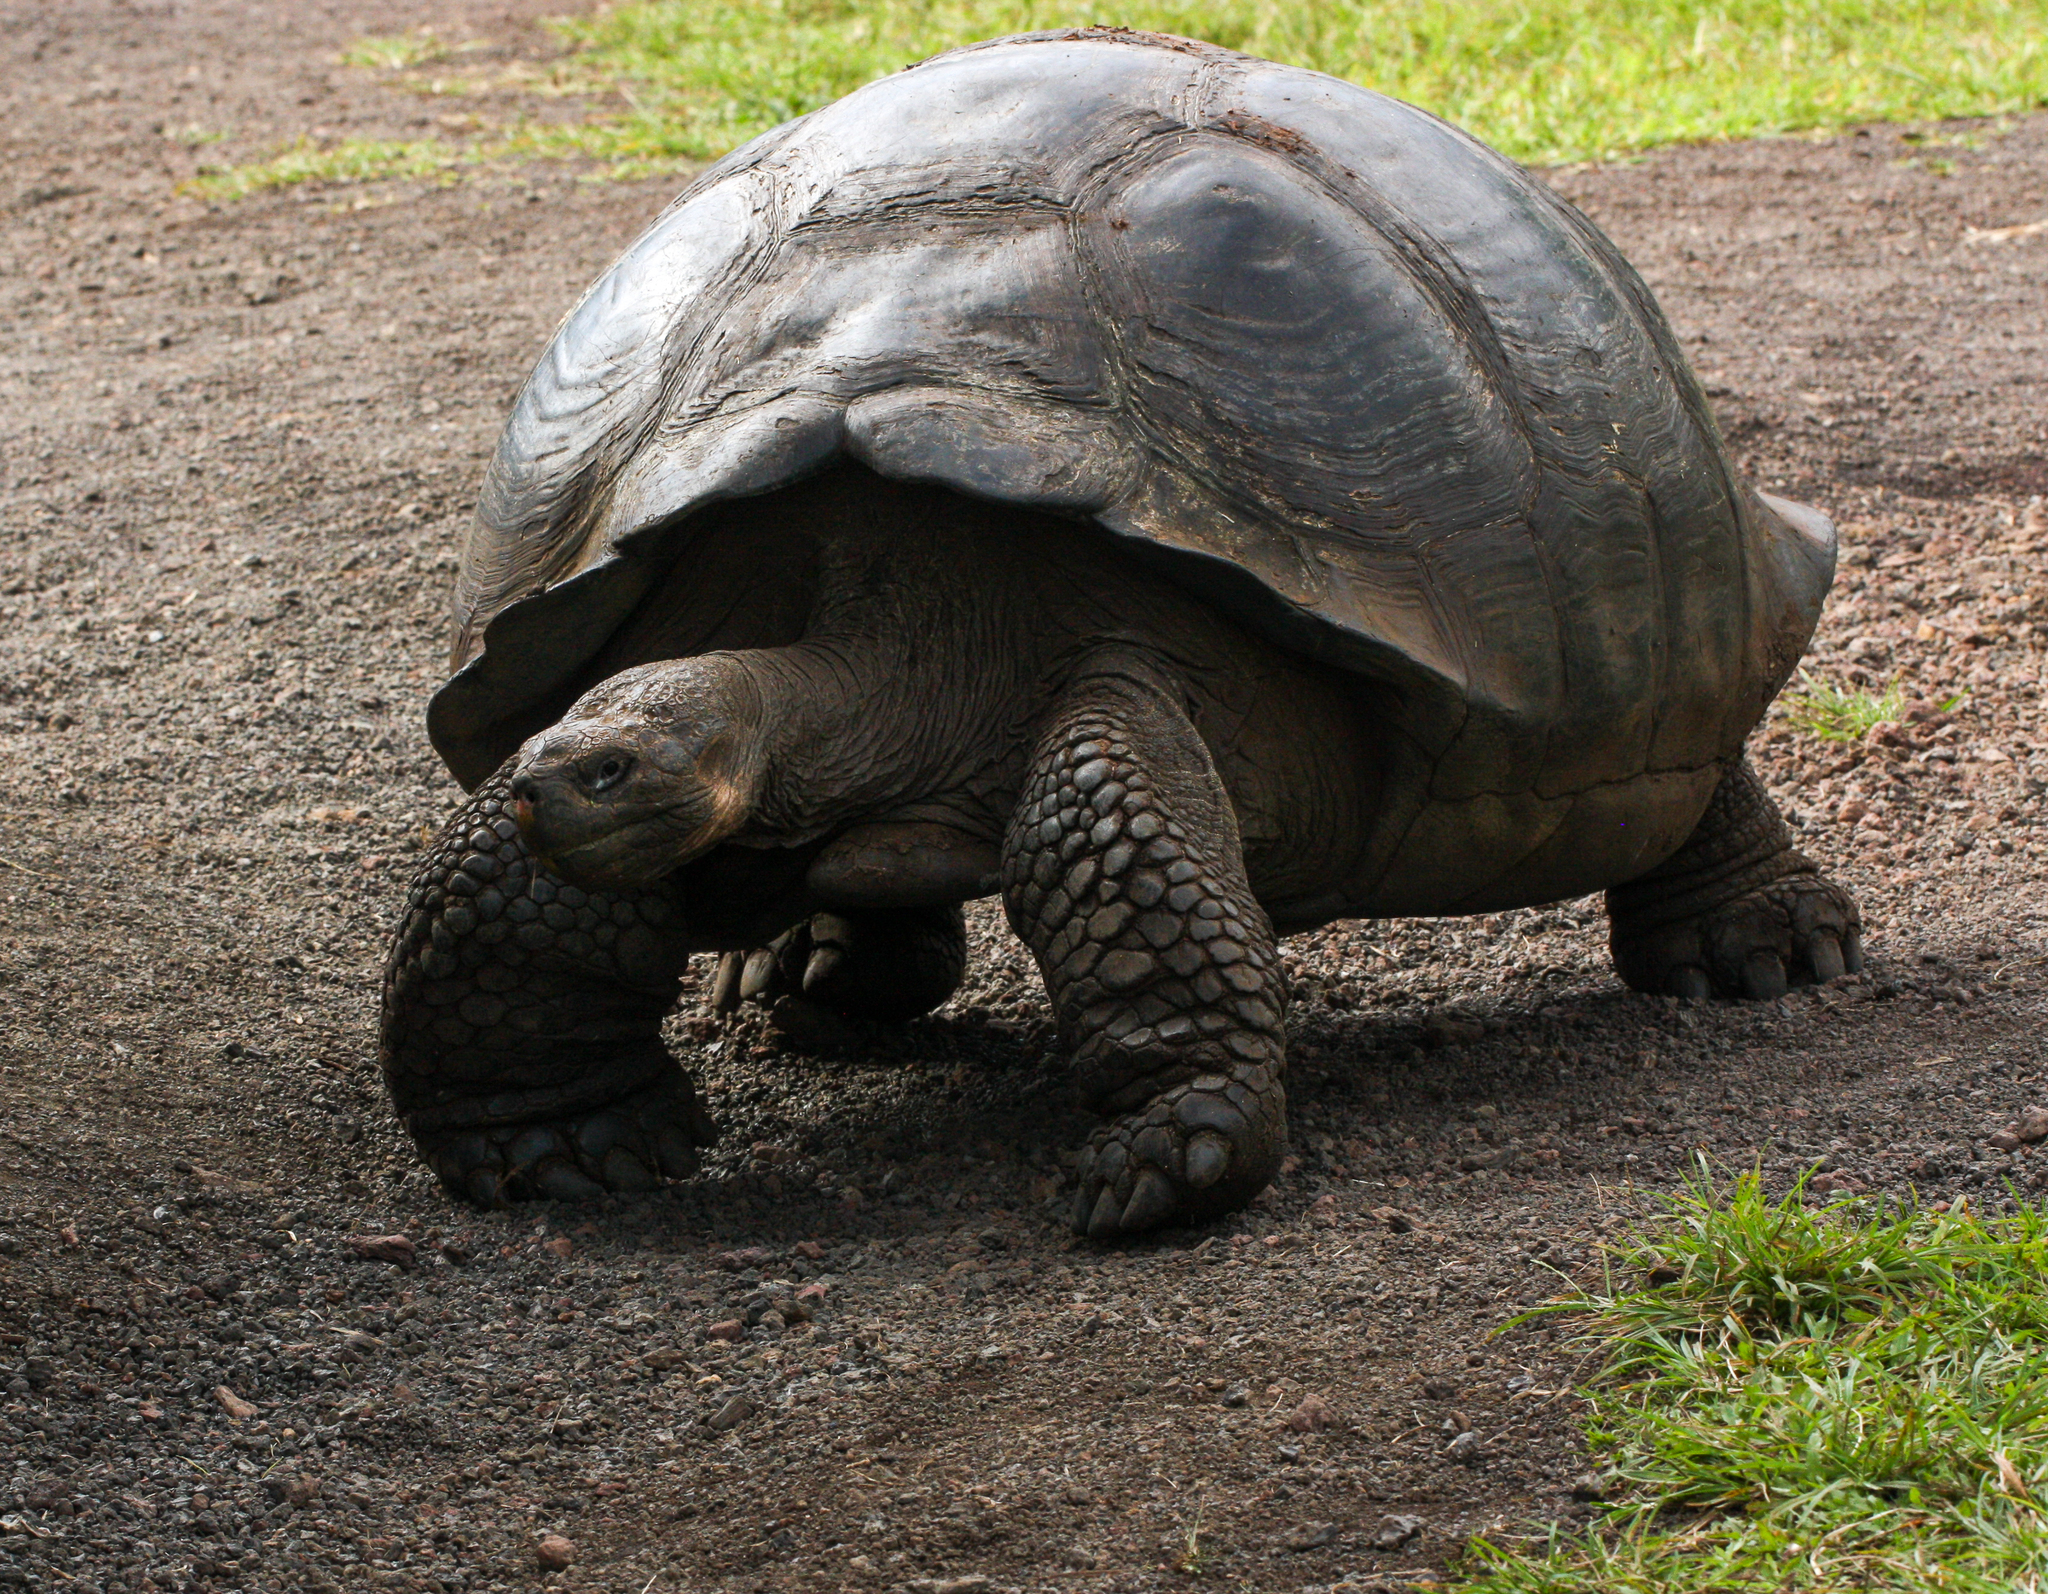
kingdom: Animalia
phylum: Chordata
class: Testudines
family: Testudinidae
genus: Chelonoidis
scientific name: Chelonoidis porteri
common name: Indefatigable island giant tortoise
